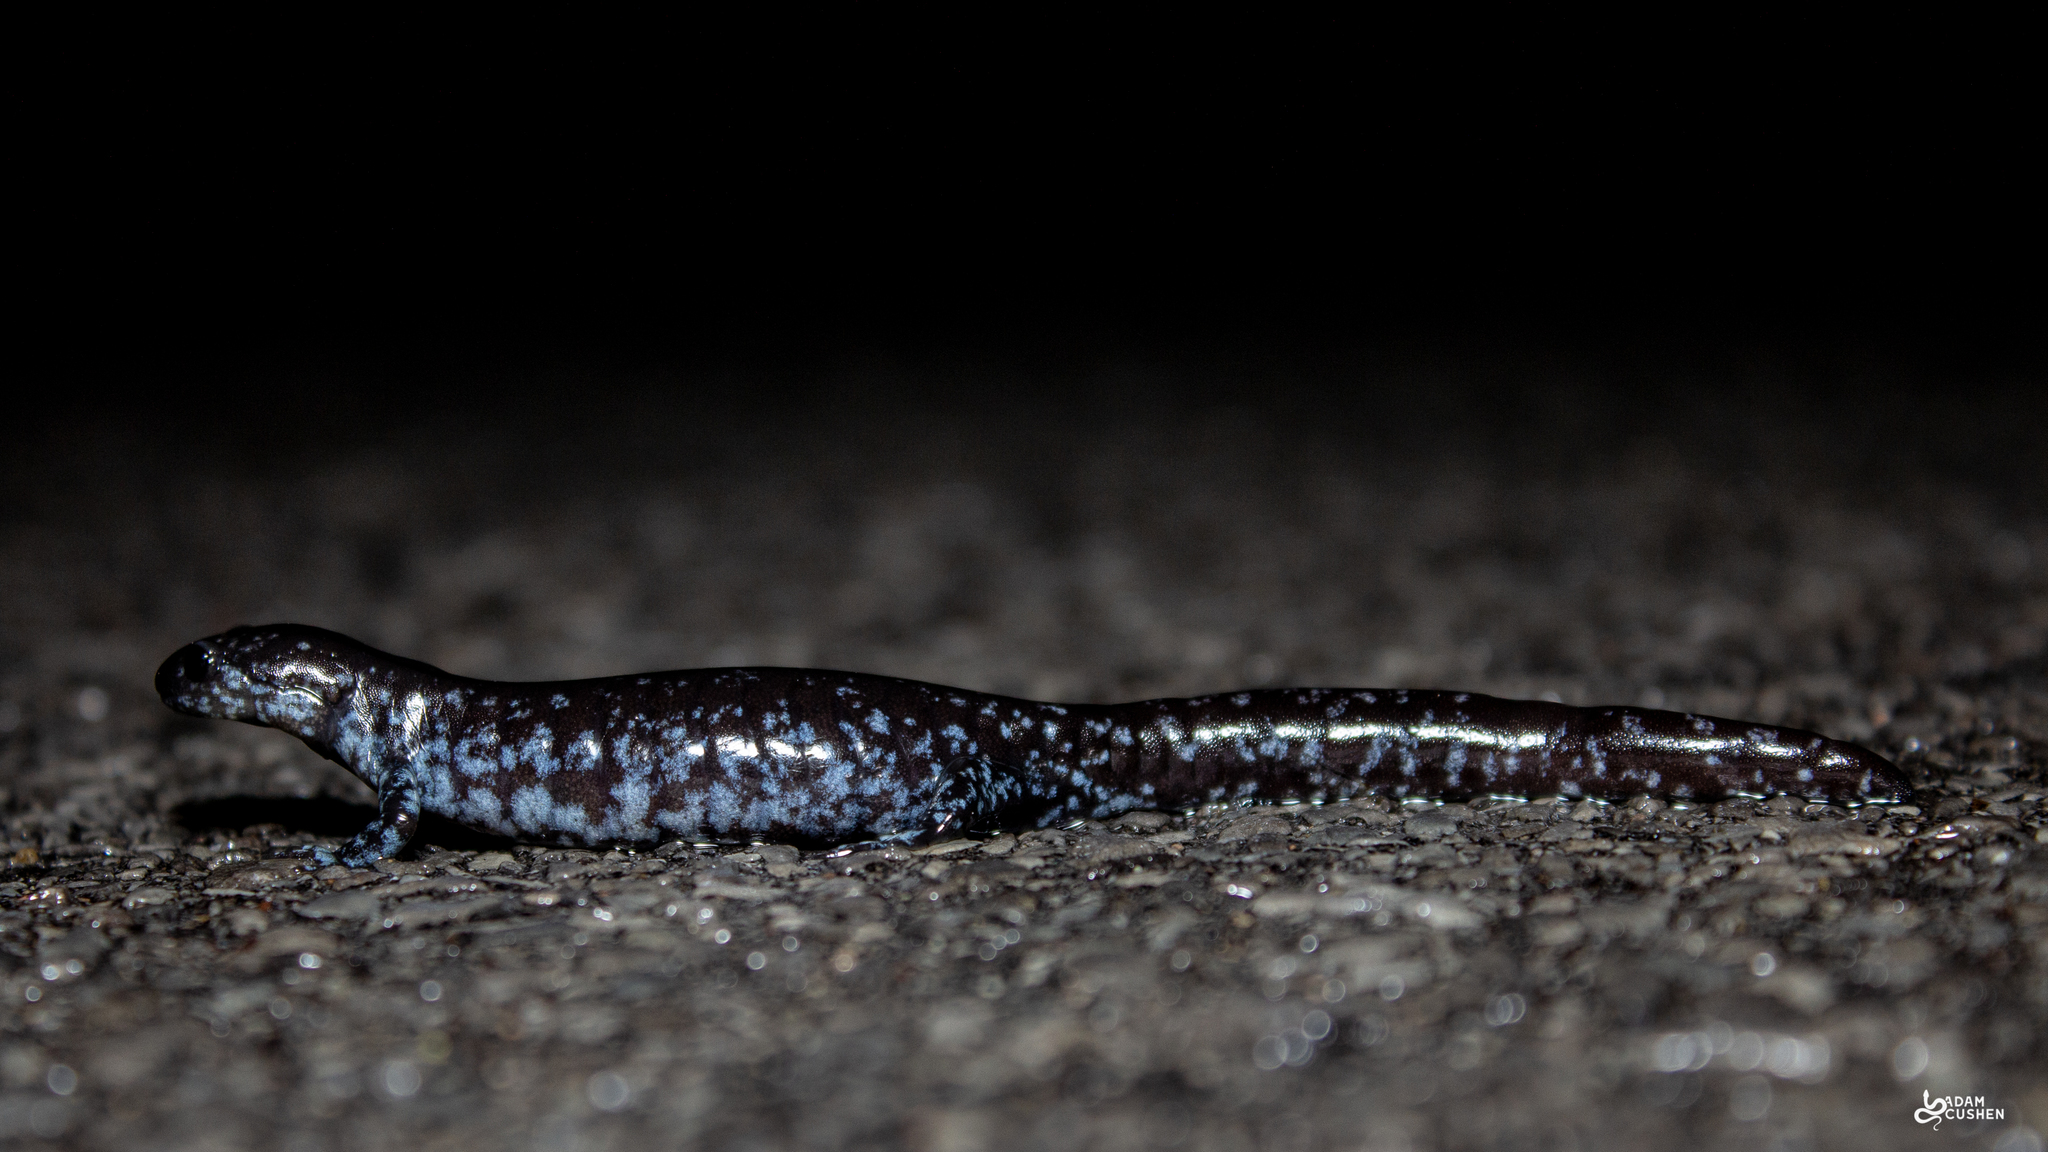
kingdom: Animalia
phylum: Chordata
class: Amphibia
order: Caudata
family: Ambystomatidae
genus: Ambystoma
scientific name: Ambystoma laterale
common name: Blue-spotted salamander
